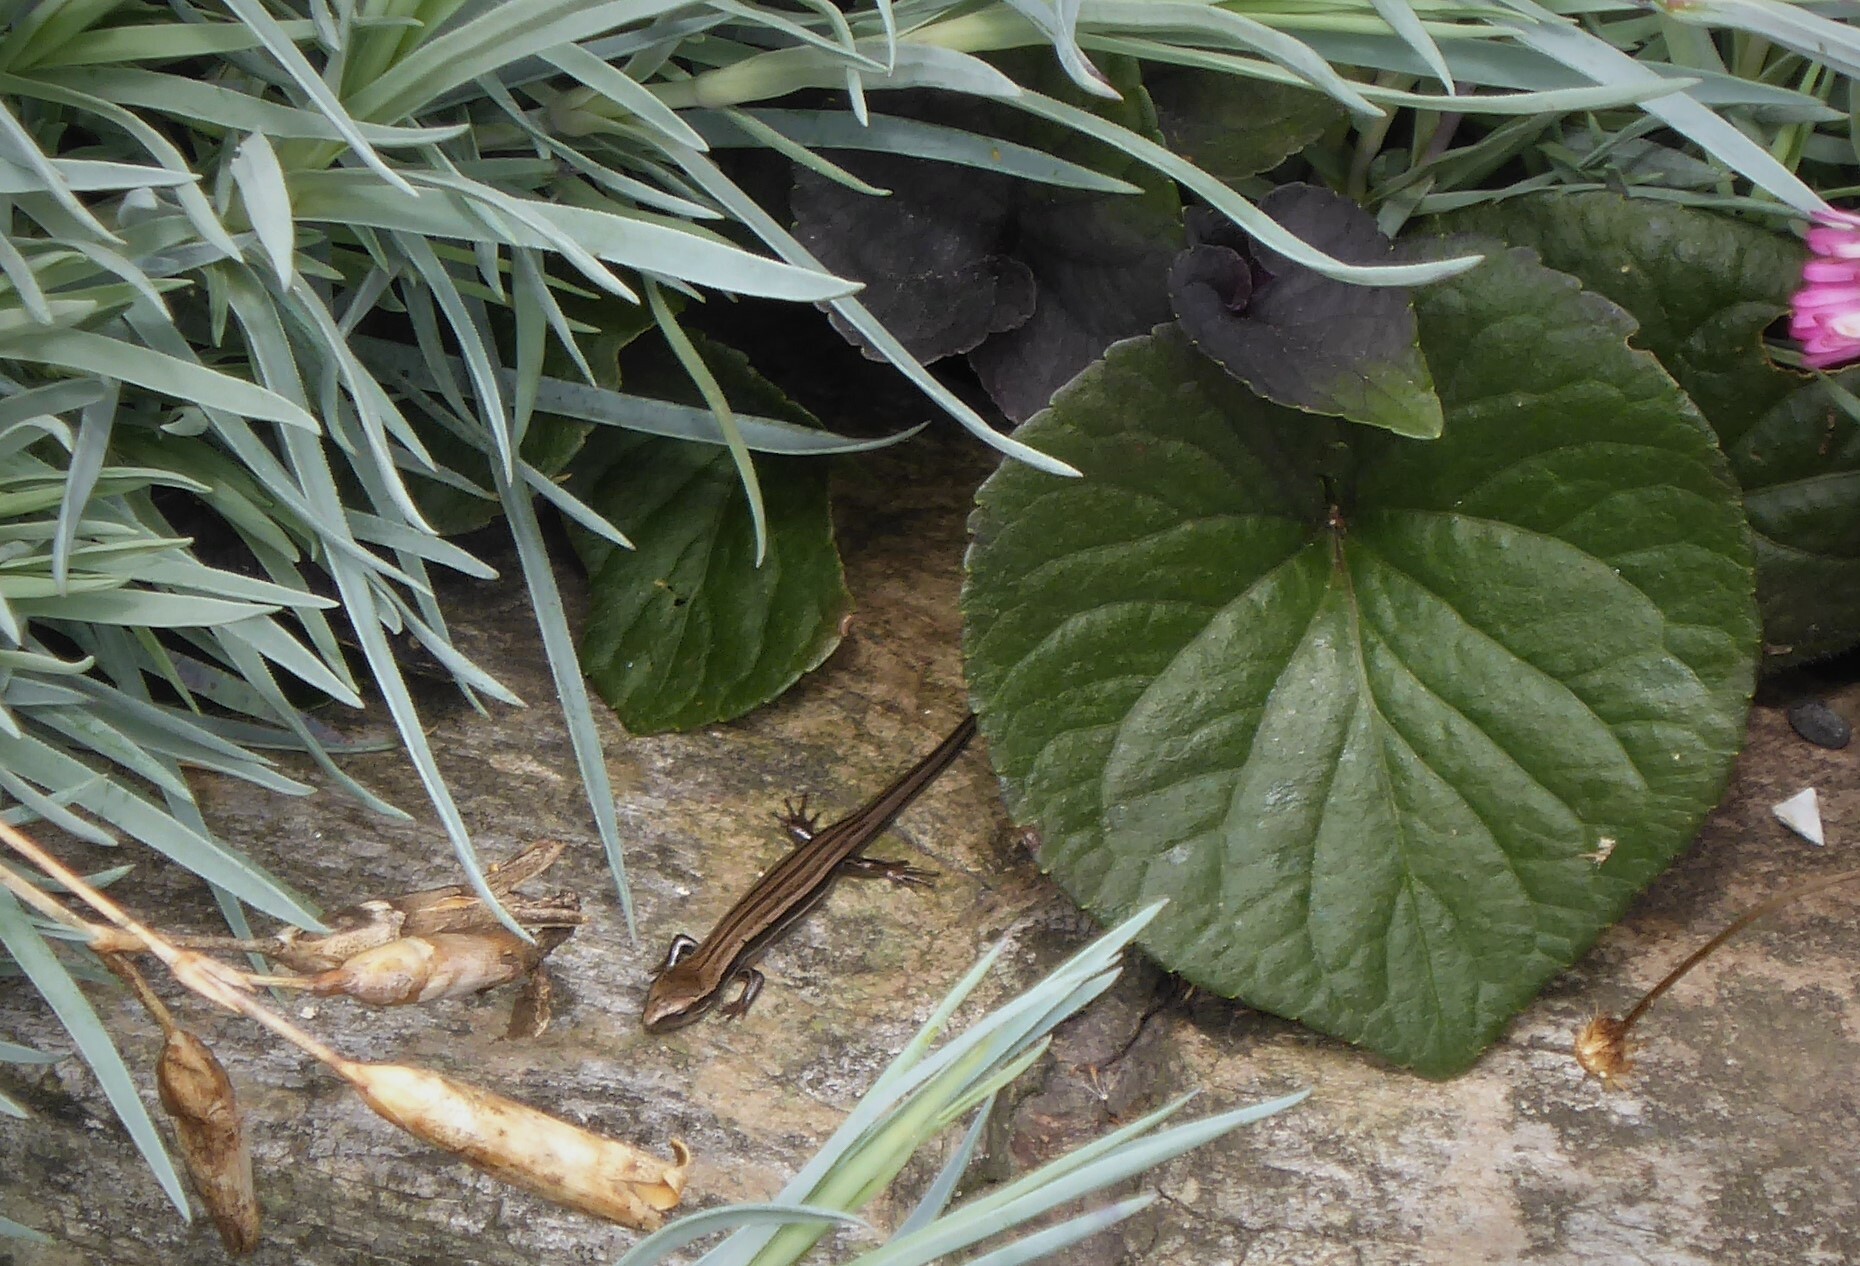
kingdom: Animalia
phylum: Chordata
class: Squamata
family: Scincidae
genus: Oligosoma
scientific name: Oligosoma polychroma
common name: Common new zealand skink
